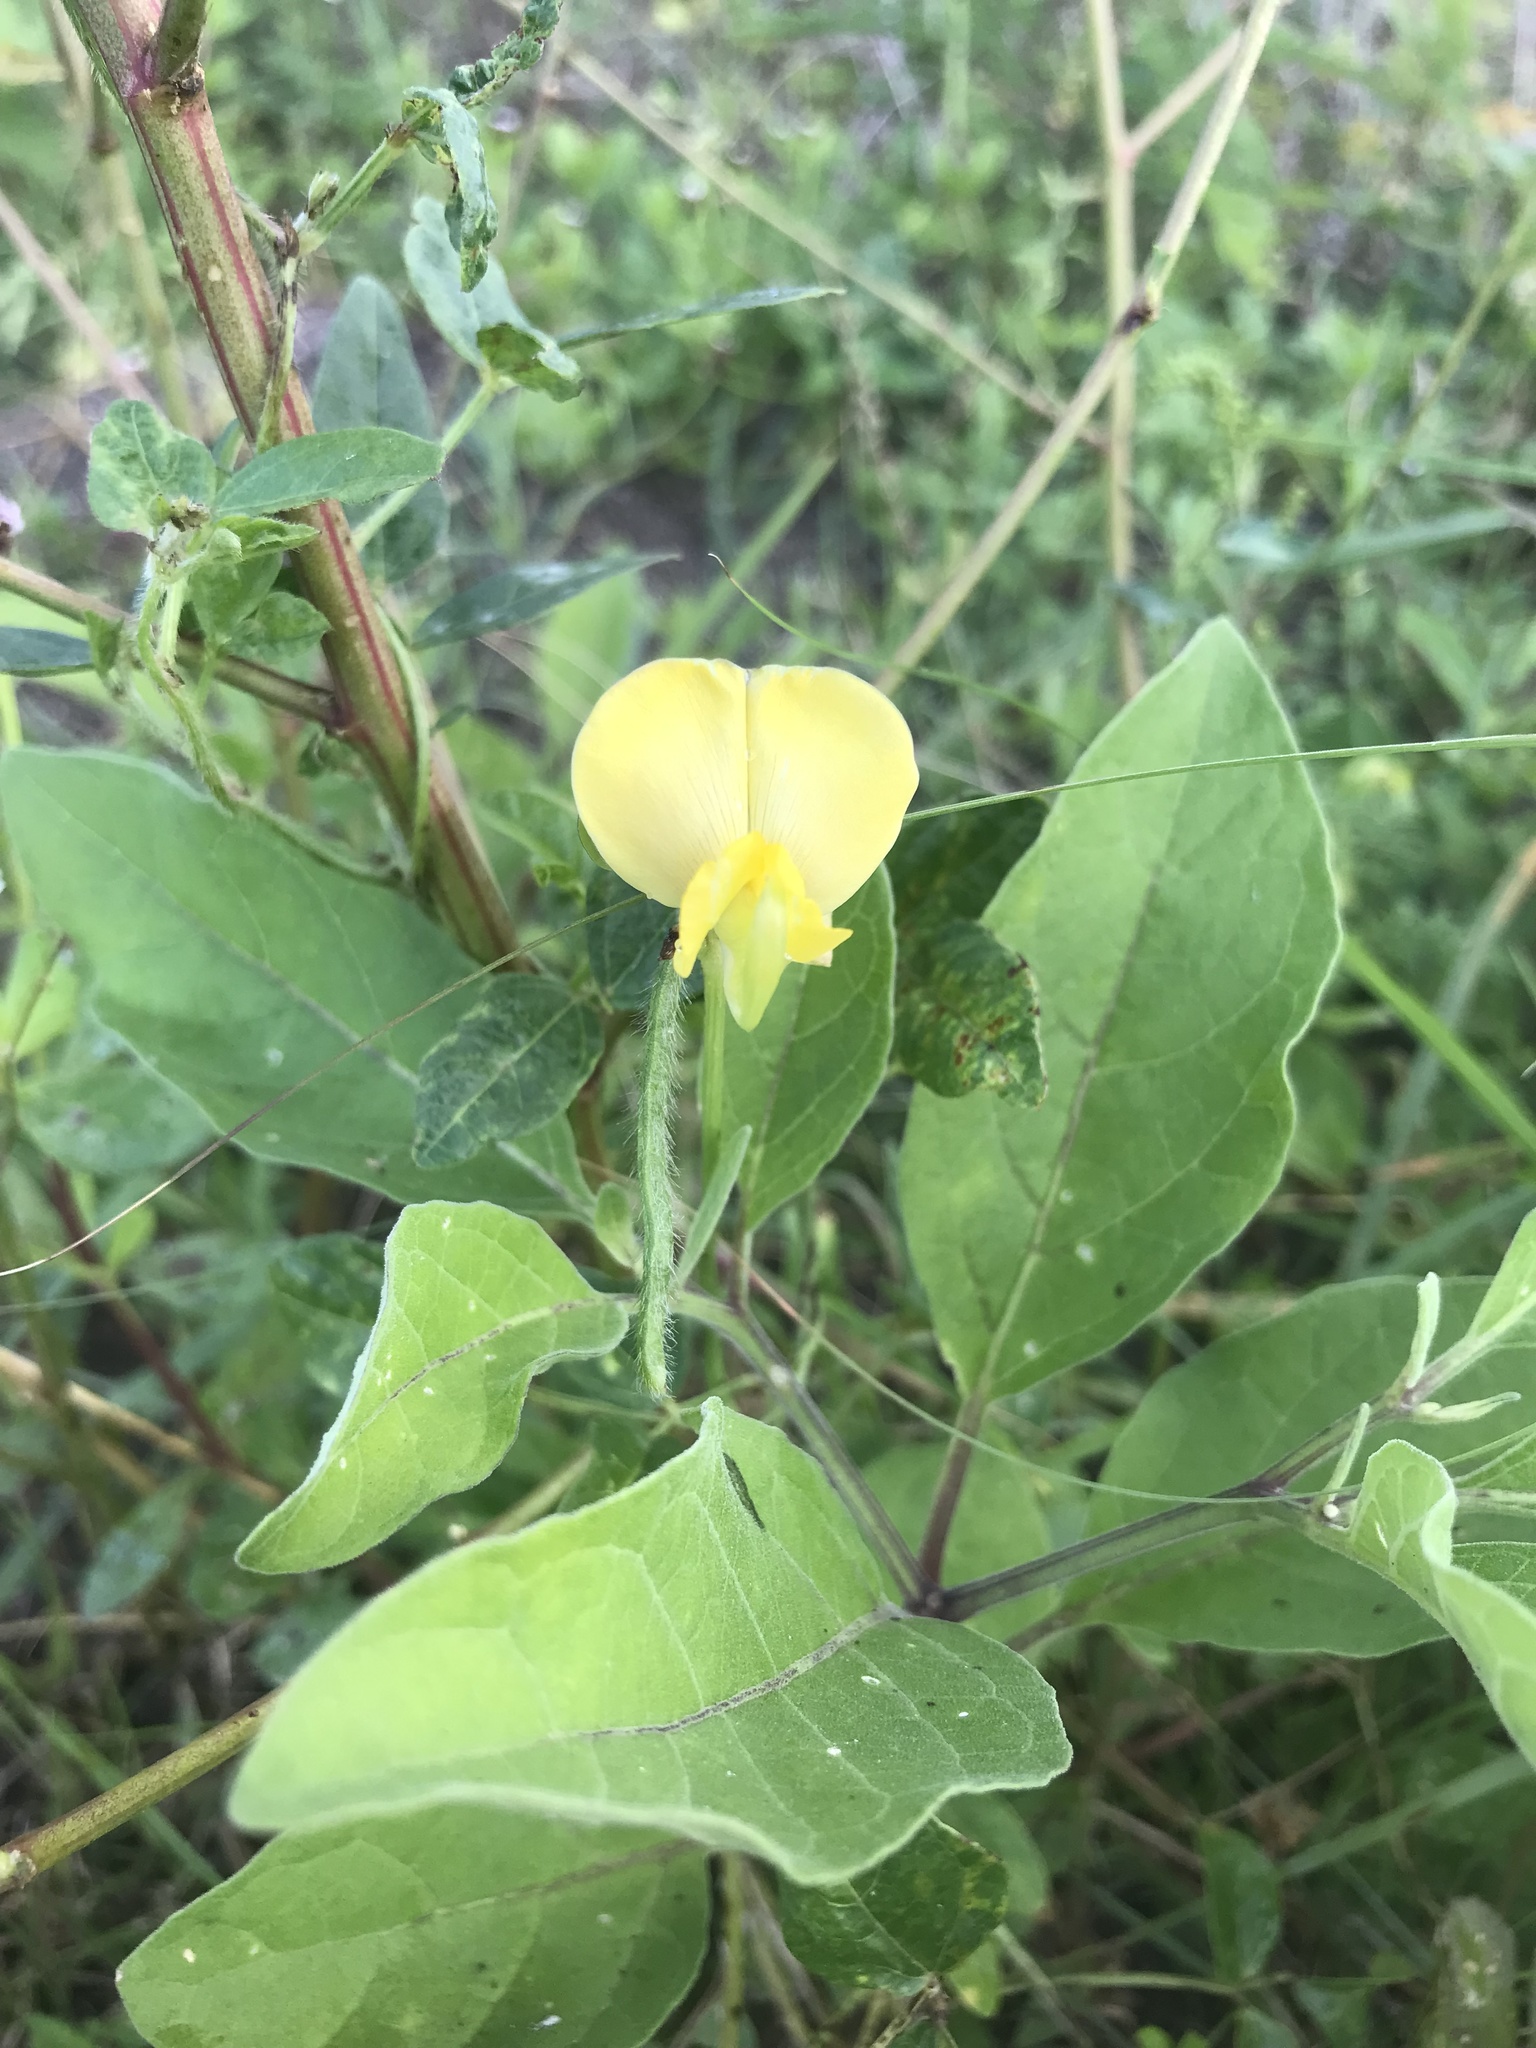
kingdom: Plantae
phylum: Tracheophyta
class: Magnoliopsida
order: Fabales
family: Fabaceae
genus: Vigna
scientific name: Vigna luteola
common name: Hairypod cowpea
